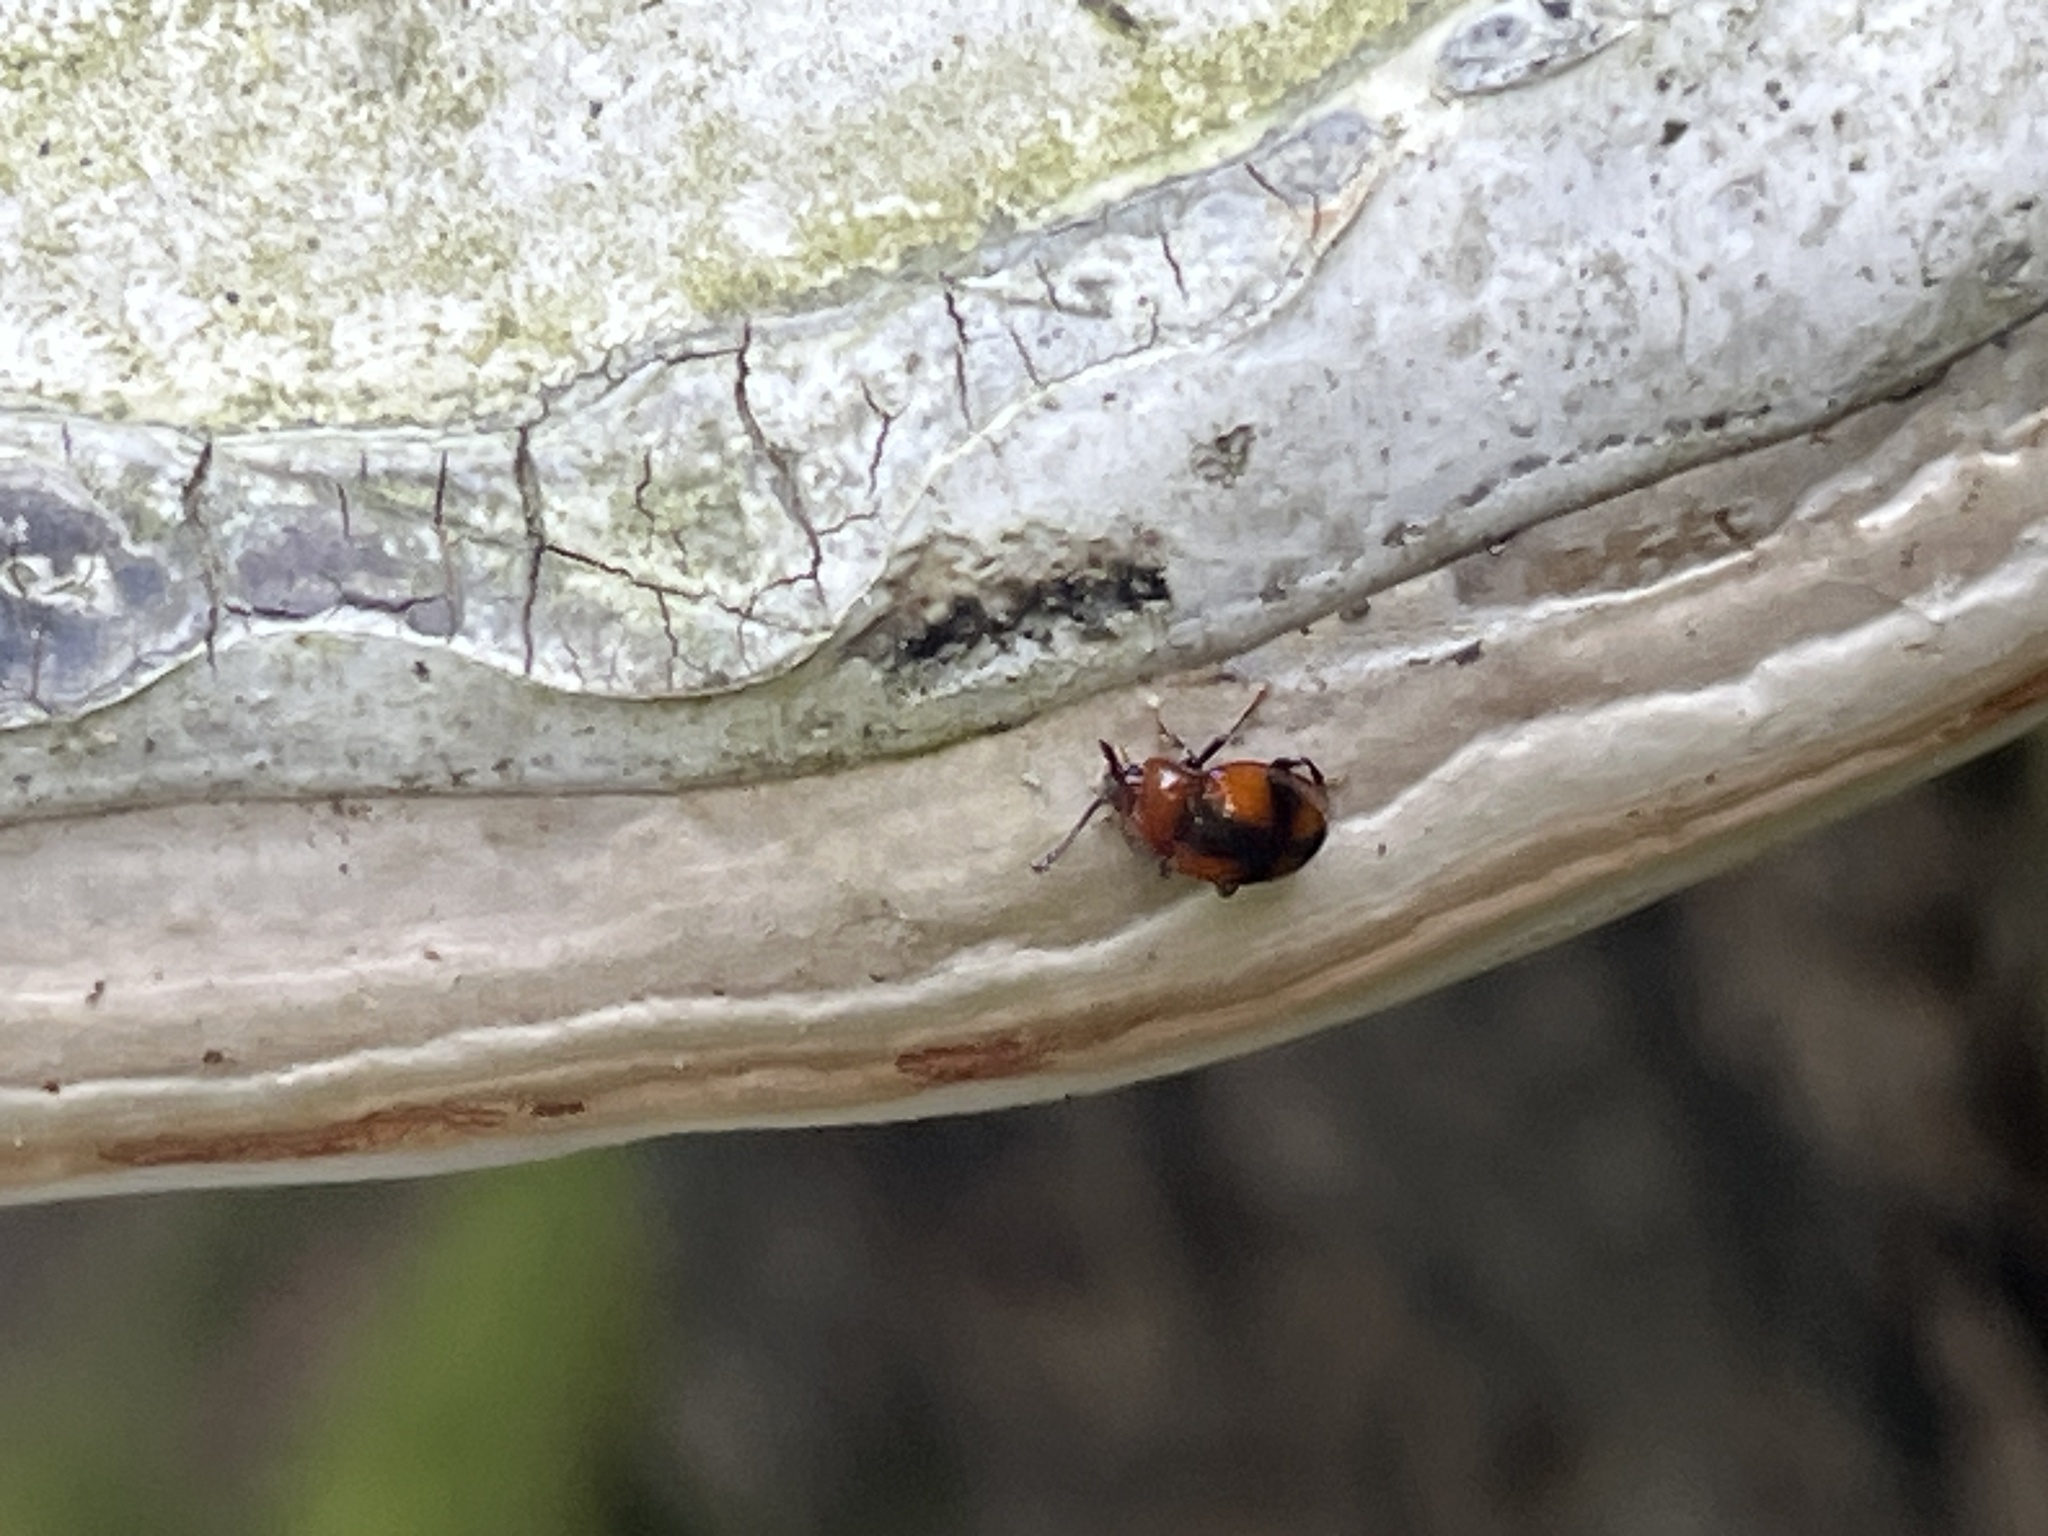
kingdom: Animalia
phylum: Arthropoda
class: Insecta
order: Coleoptera
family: Endomychidae
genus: Mycetina
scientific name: Mycetina cruciata
